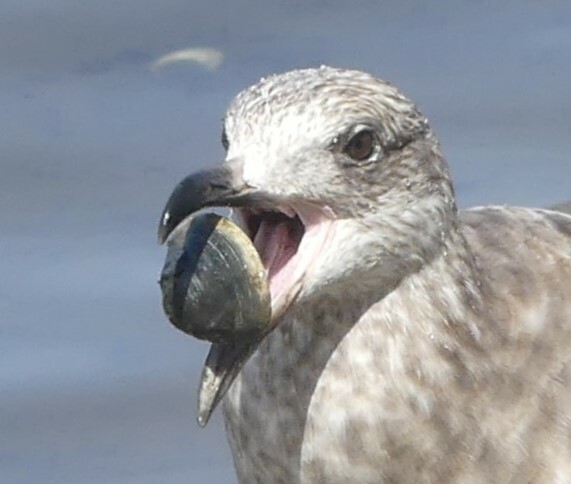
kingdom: Animalia
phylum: Mollusca
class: Bivalvia
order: Venerida
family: Veneridae
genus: Mercenaria
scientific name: Mercenaria mercenaria
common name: American hard-shelled clam
